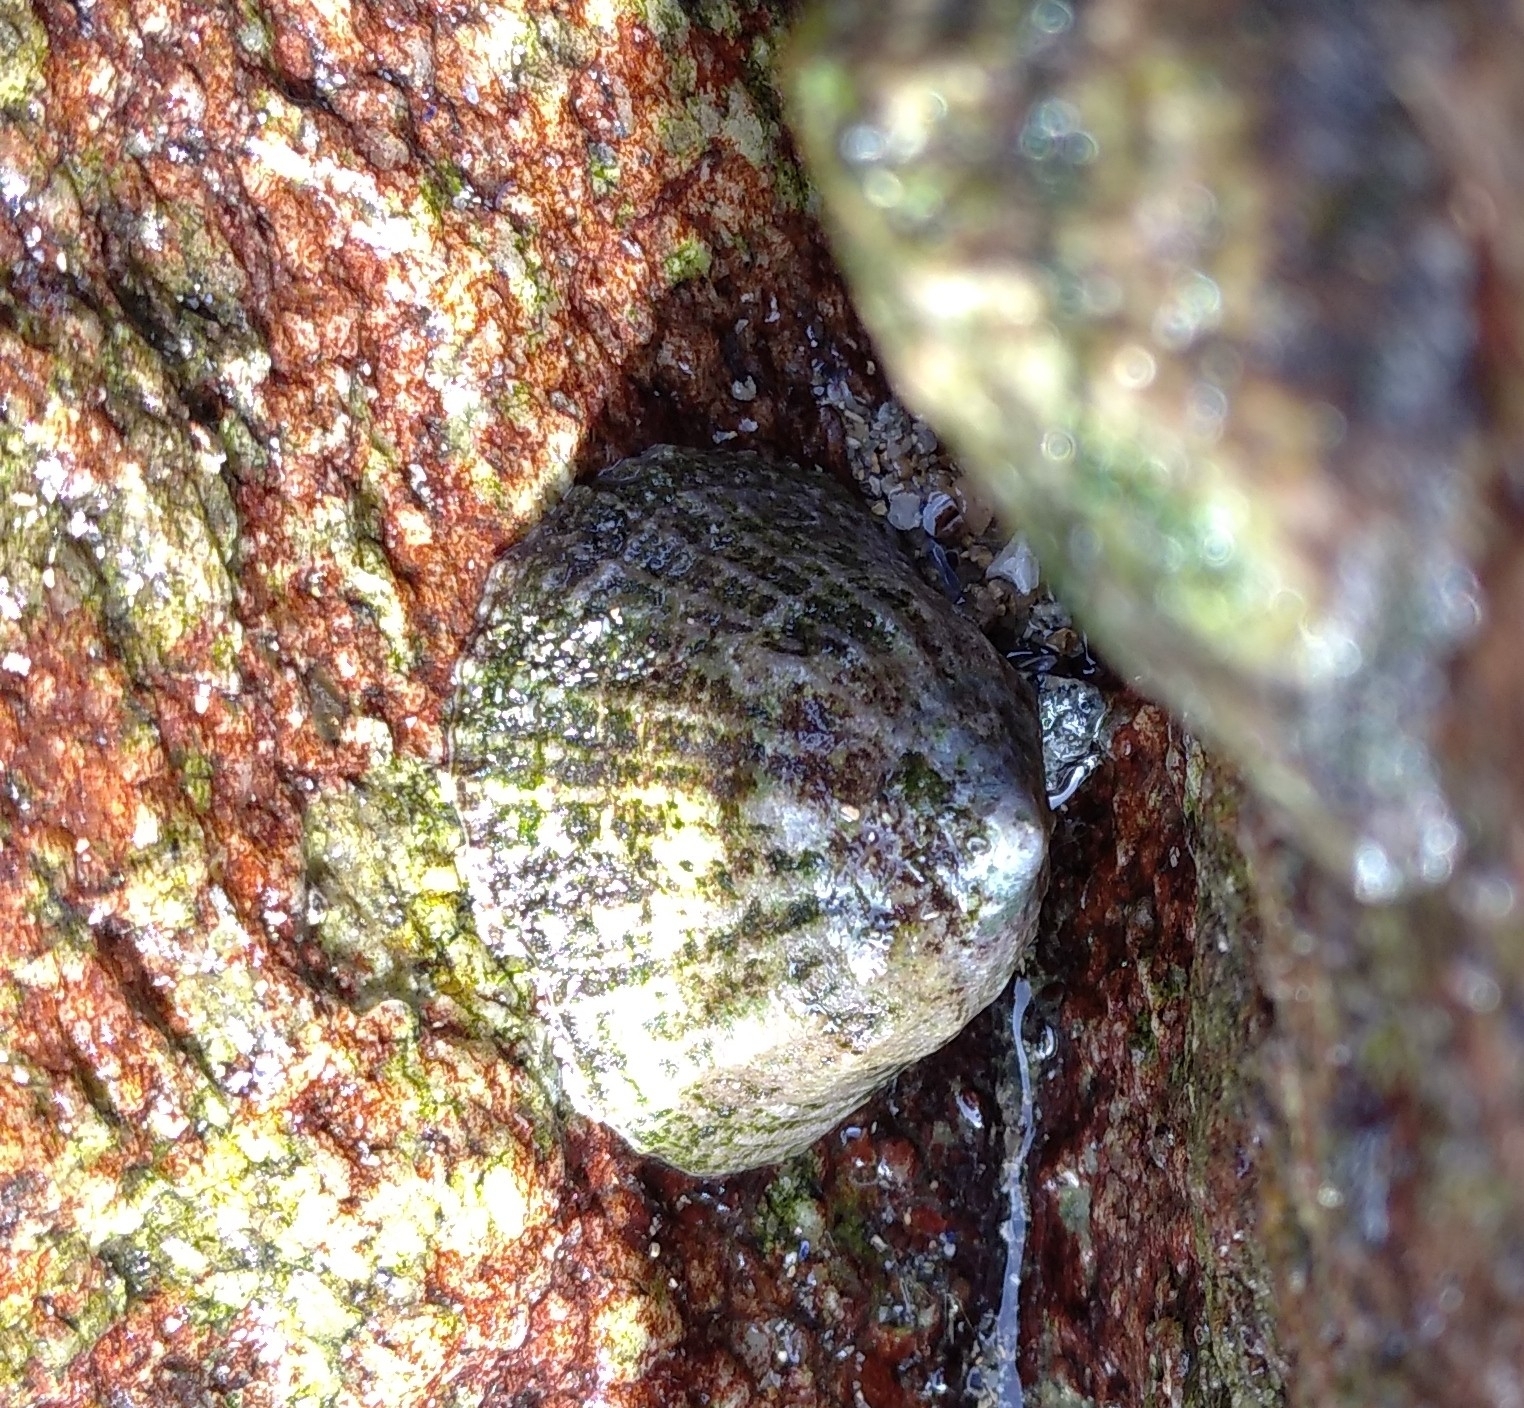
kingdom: Animalia
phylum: Mollusca
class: Gastropoda
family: Patellidae
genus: Patella
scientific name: Patella vulgata
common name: Common limpet
